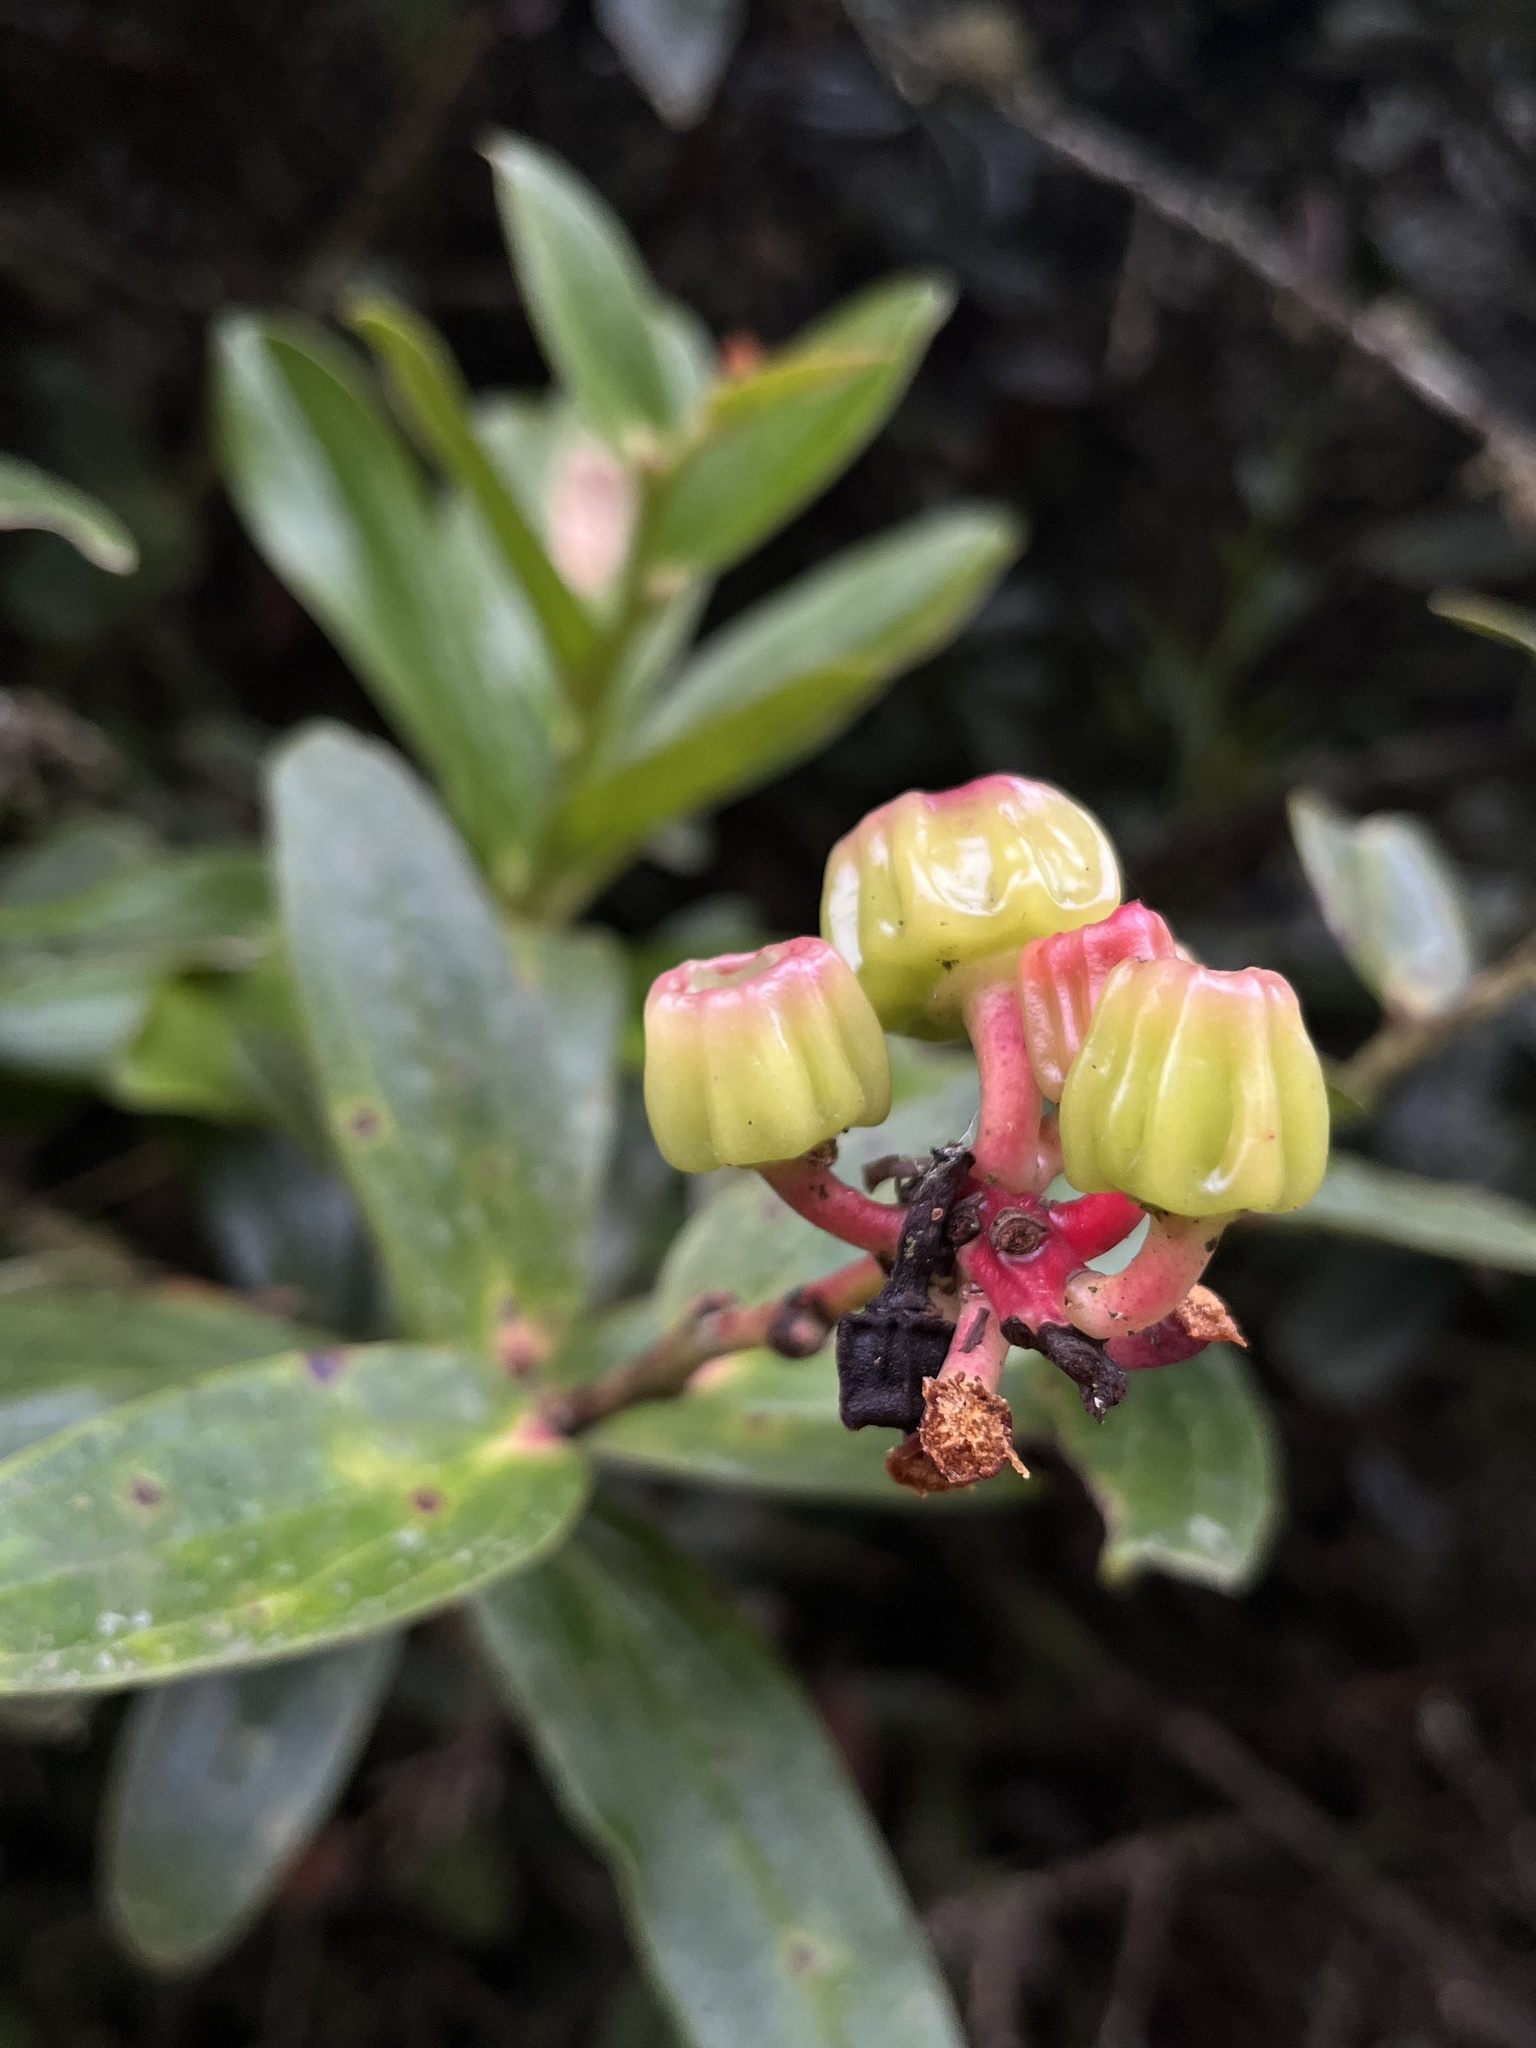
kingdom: Plantae
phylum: Tracheophyta
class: Magnoliopsida
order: Ericales
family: Ericaceae
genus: Cavendishia
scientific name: Cavendishia nitida
